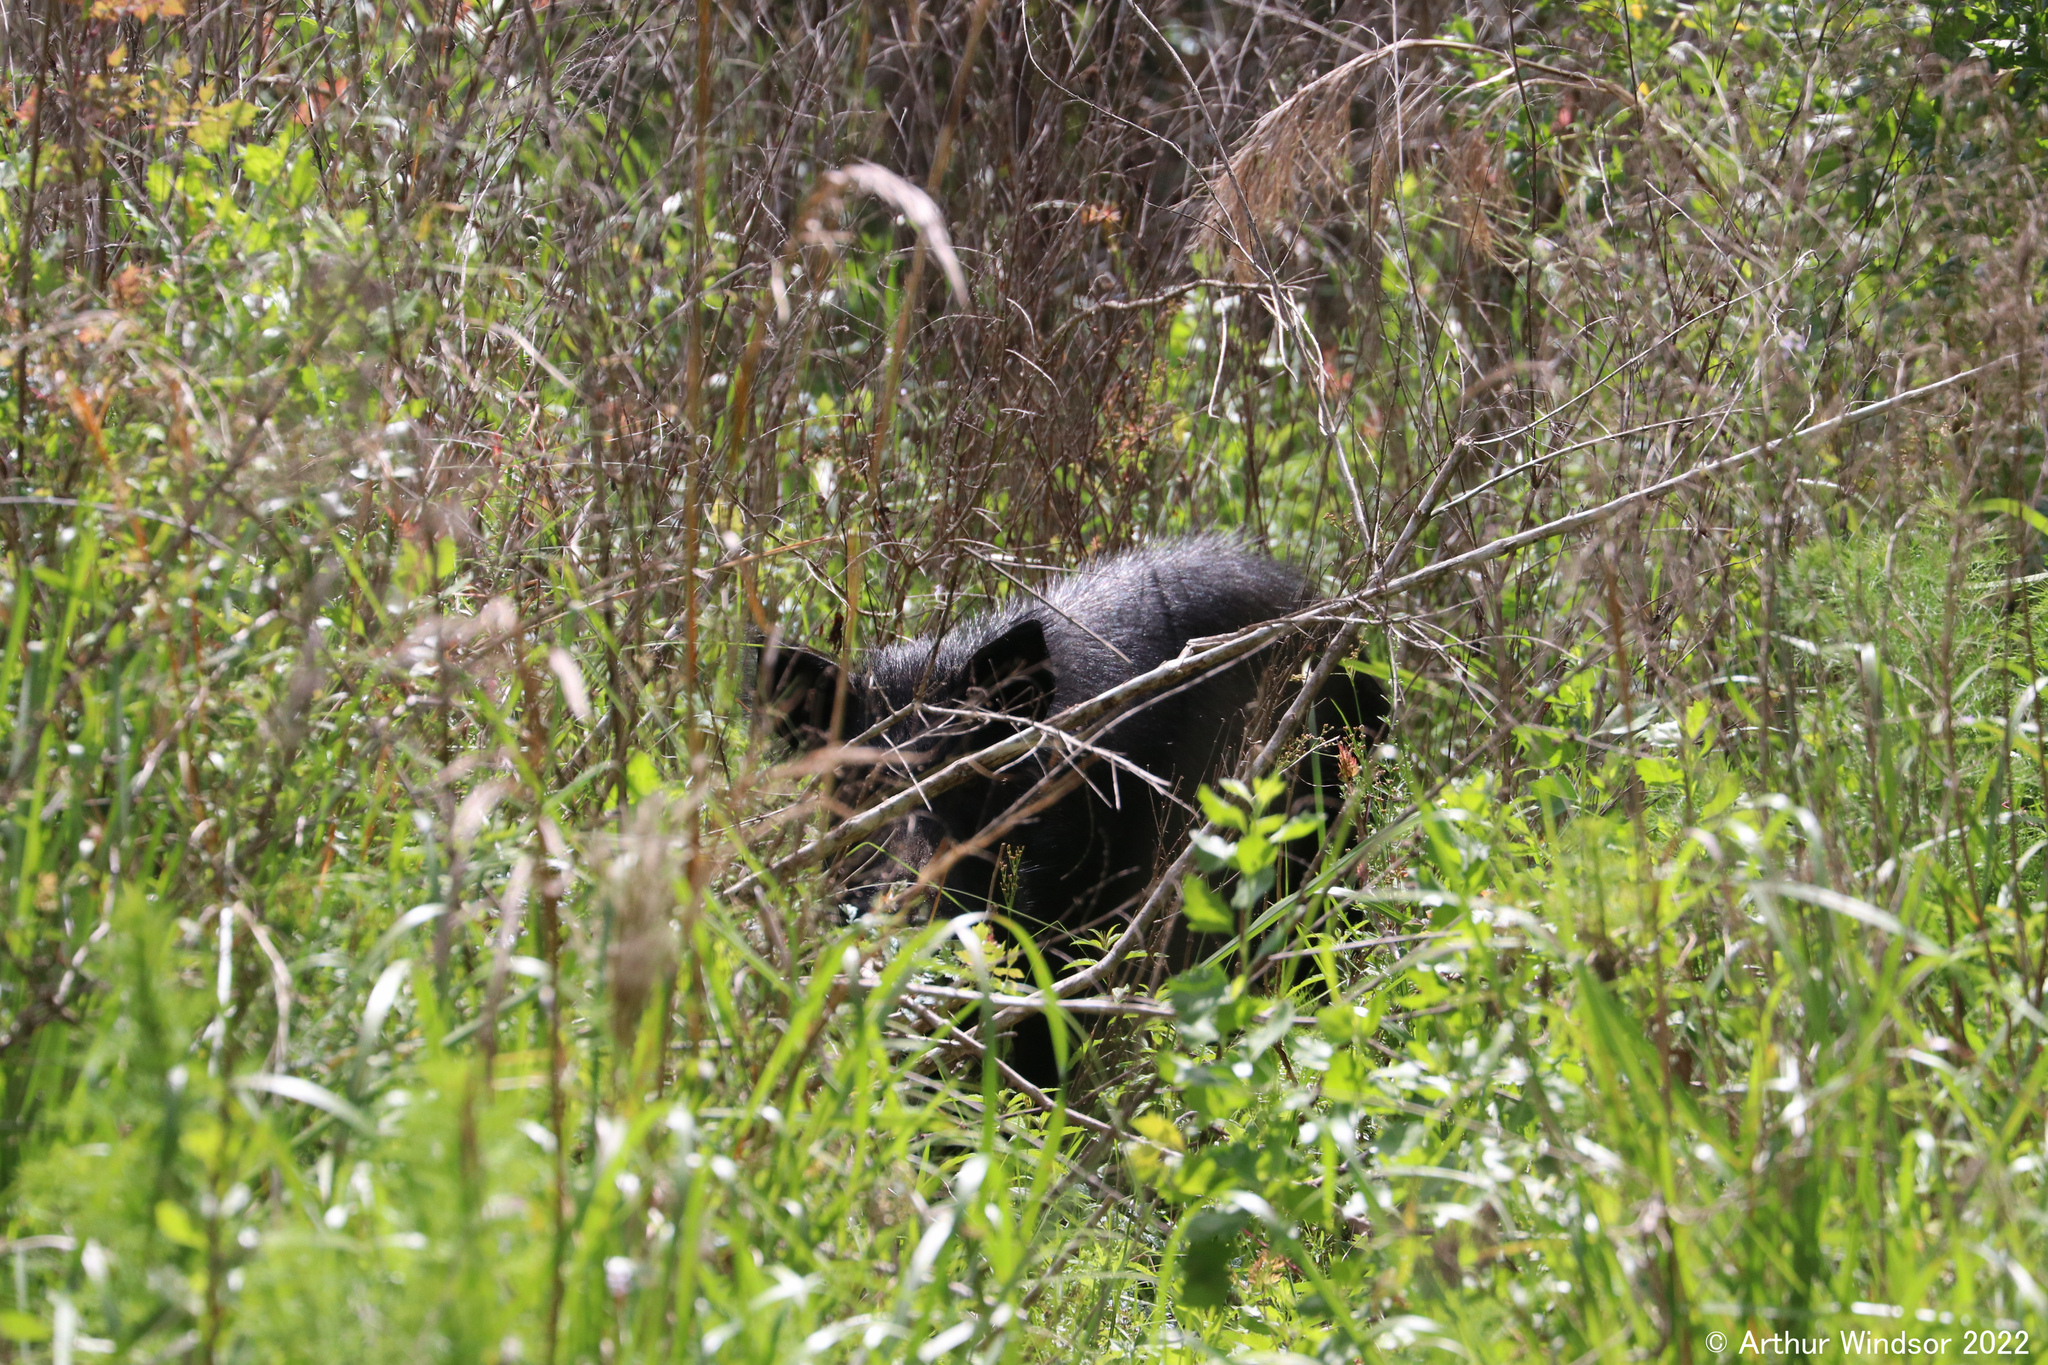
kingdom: Animalia
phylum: Chordata
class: Mammalia
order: Artiodactyla
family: Suidae
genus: Sus
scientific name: Sus scrofa
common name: Wild boar
